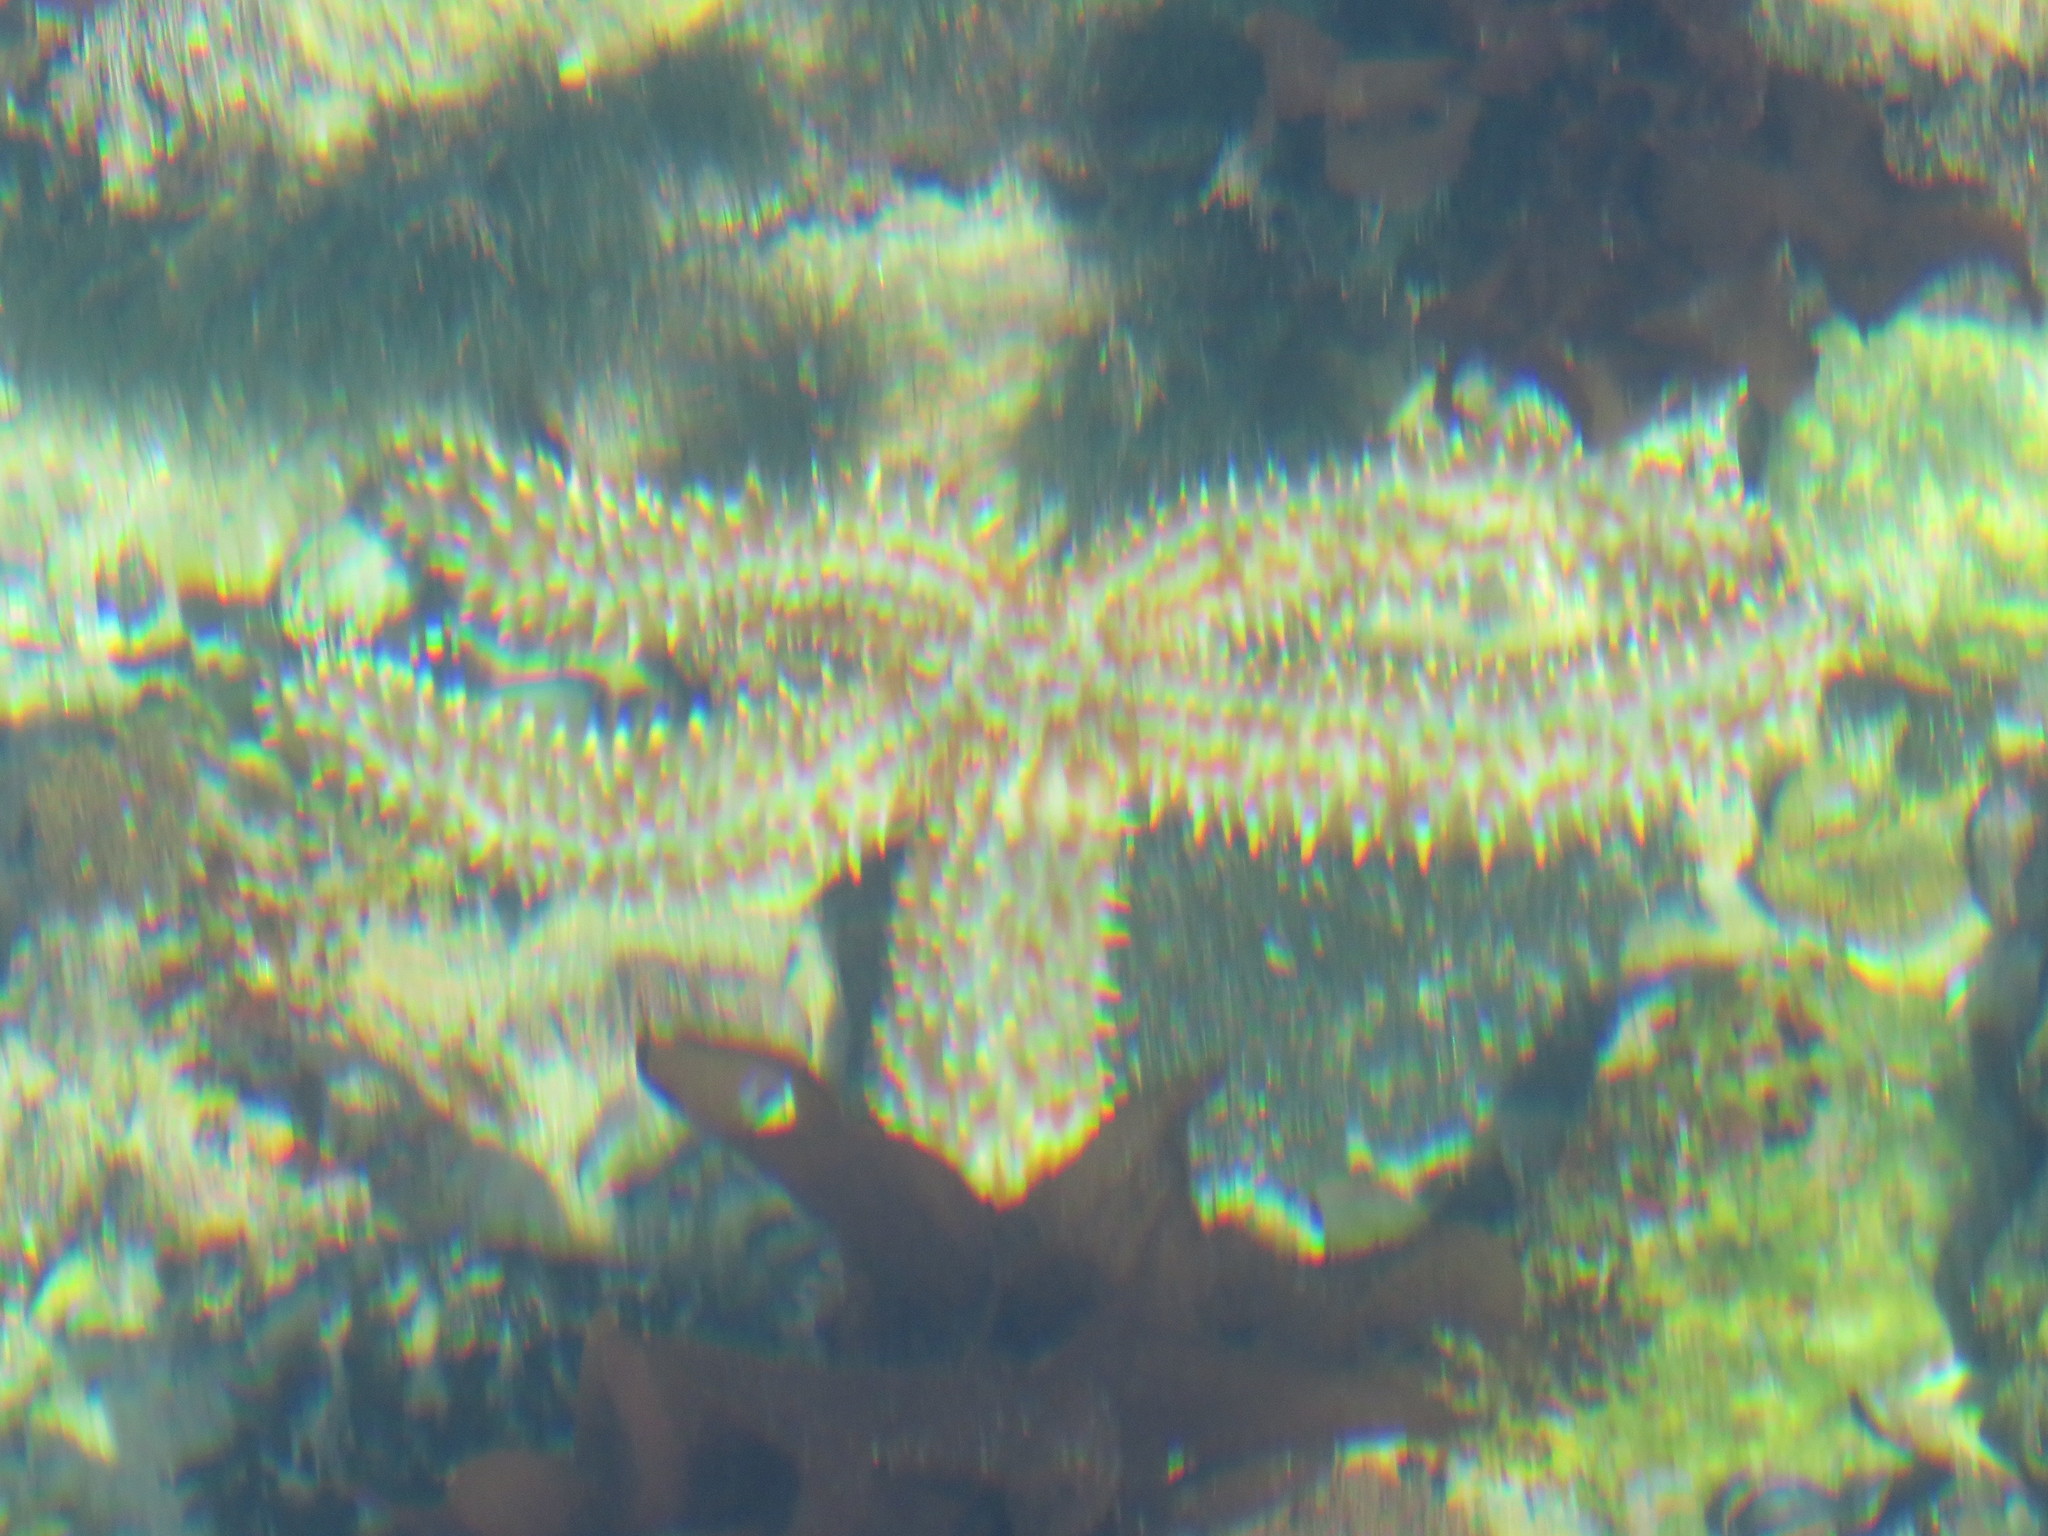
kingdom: Animalia
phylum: Echinodermata
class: Asteroidea
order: Forcipulatida
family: Asteriidae
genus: Marthasterias
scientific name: Marthasterias africana
